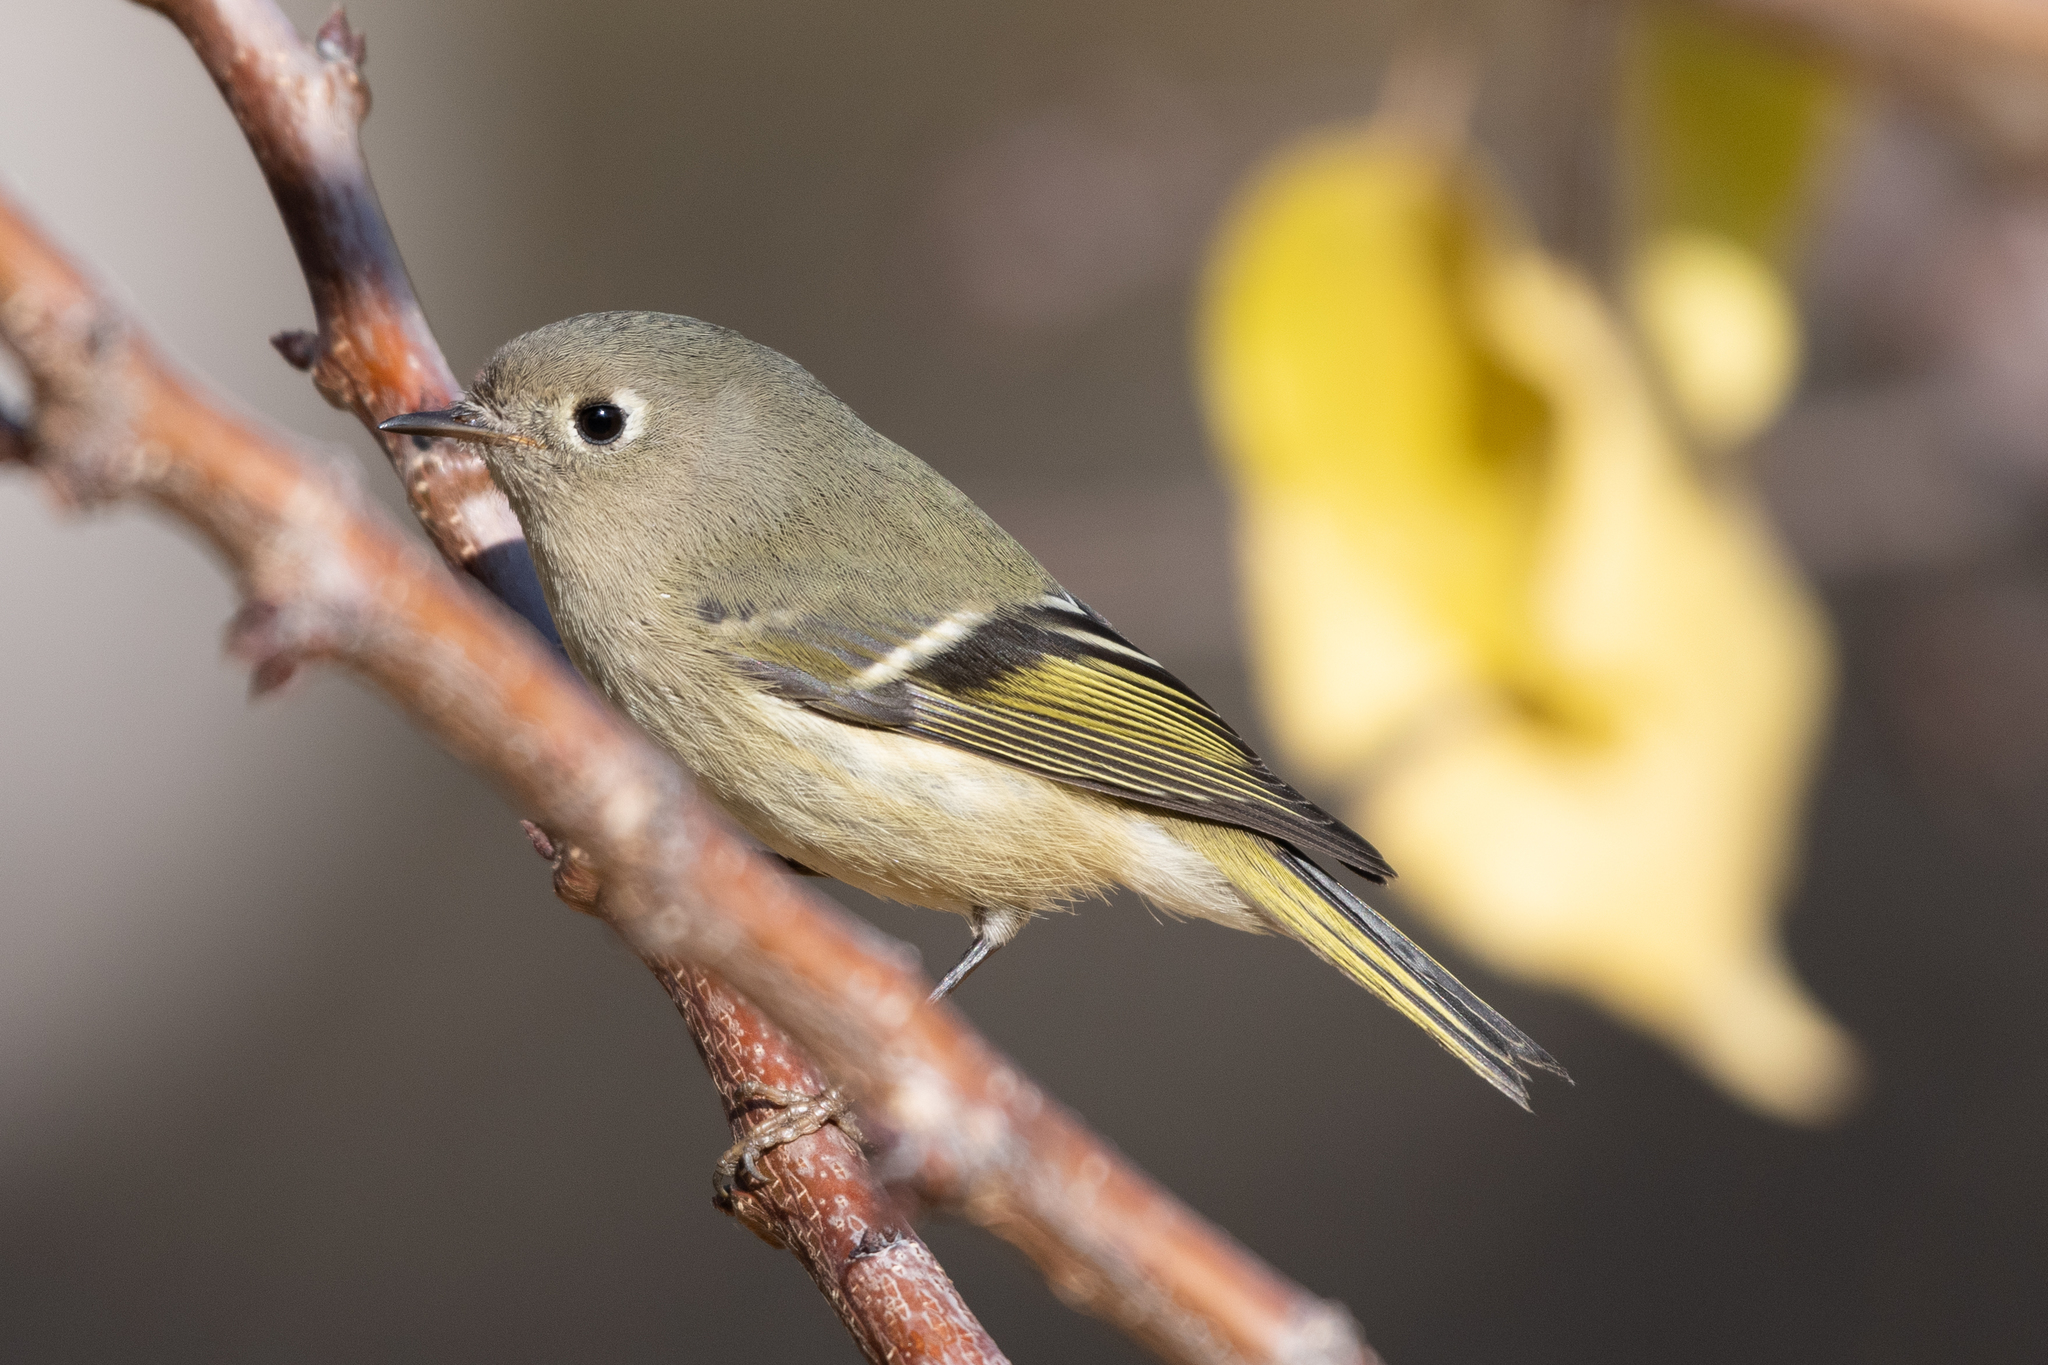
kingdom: Animalia
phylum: Chordata
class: Aves
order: Passeriformes
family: Regulidae
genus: Regulus
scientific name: Regulus calendula
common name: Ruby-crowned kinglet
